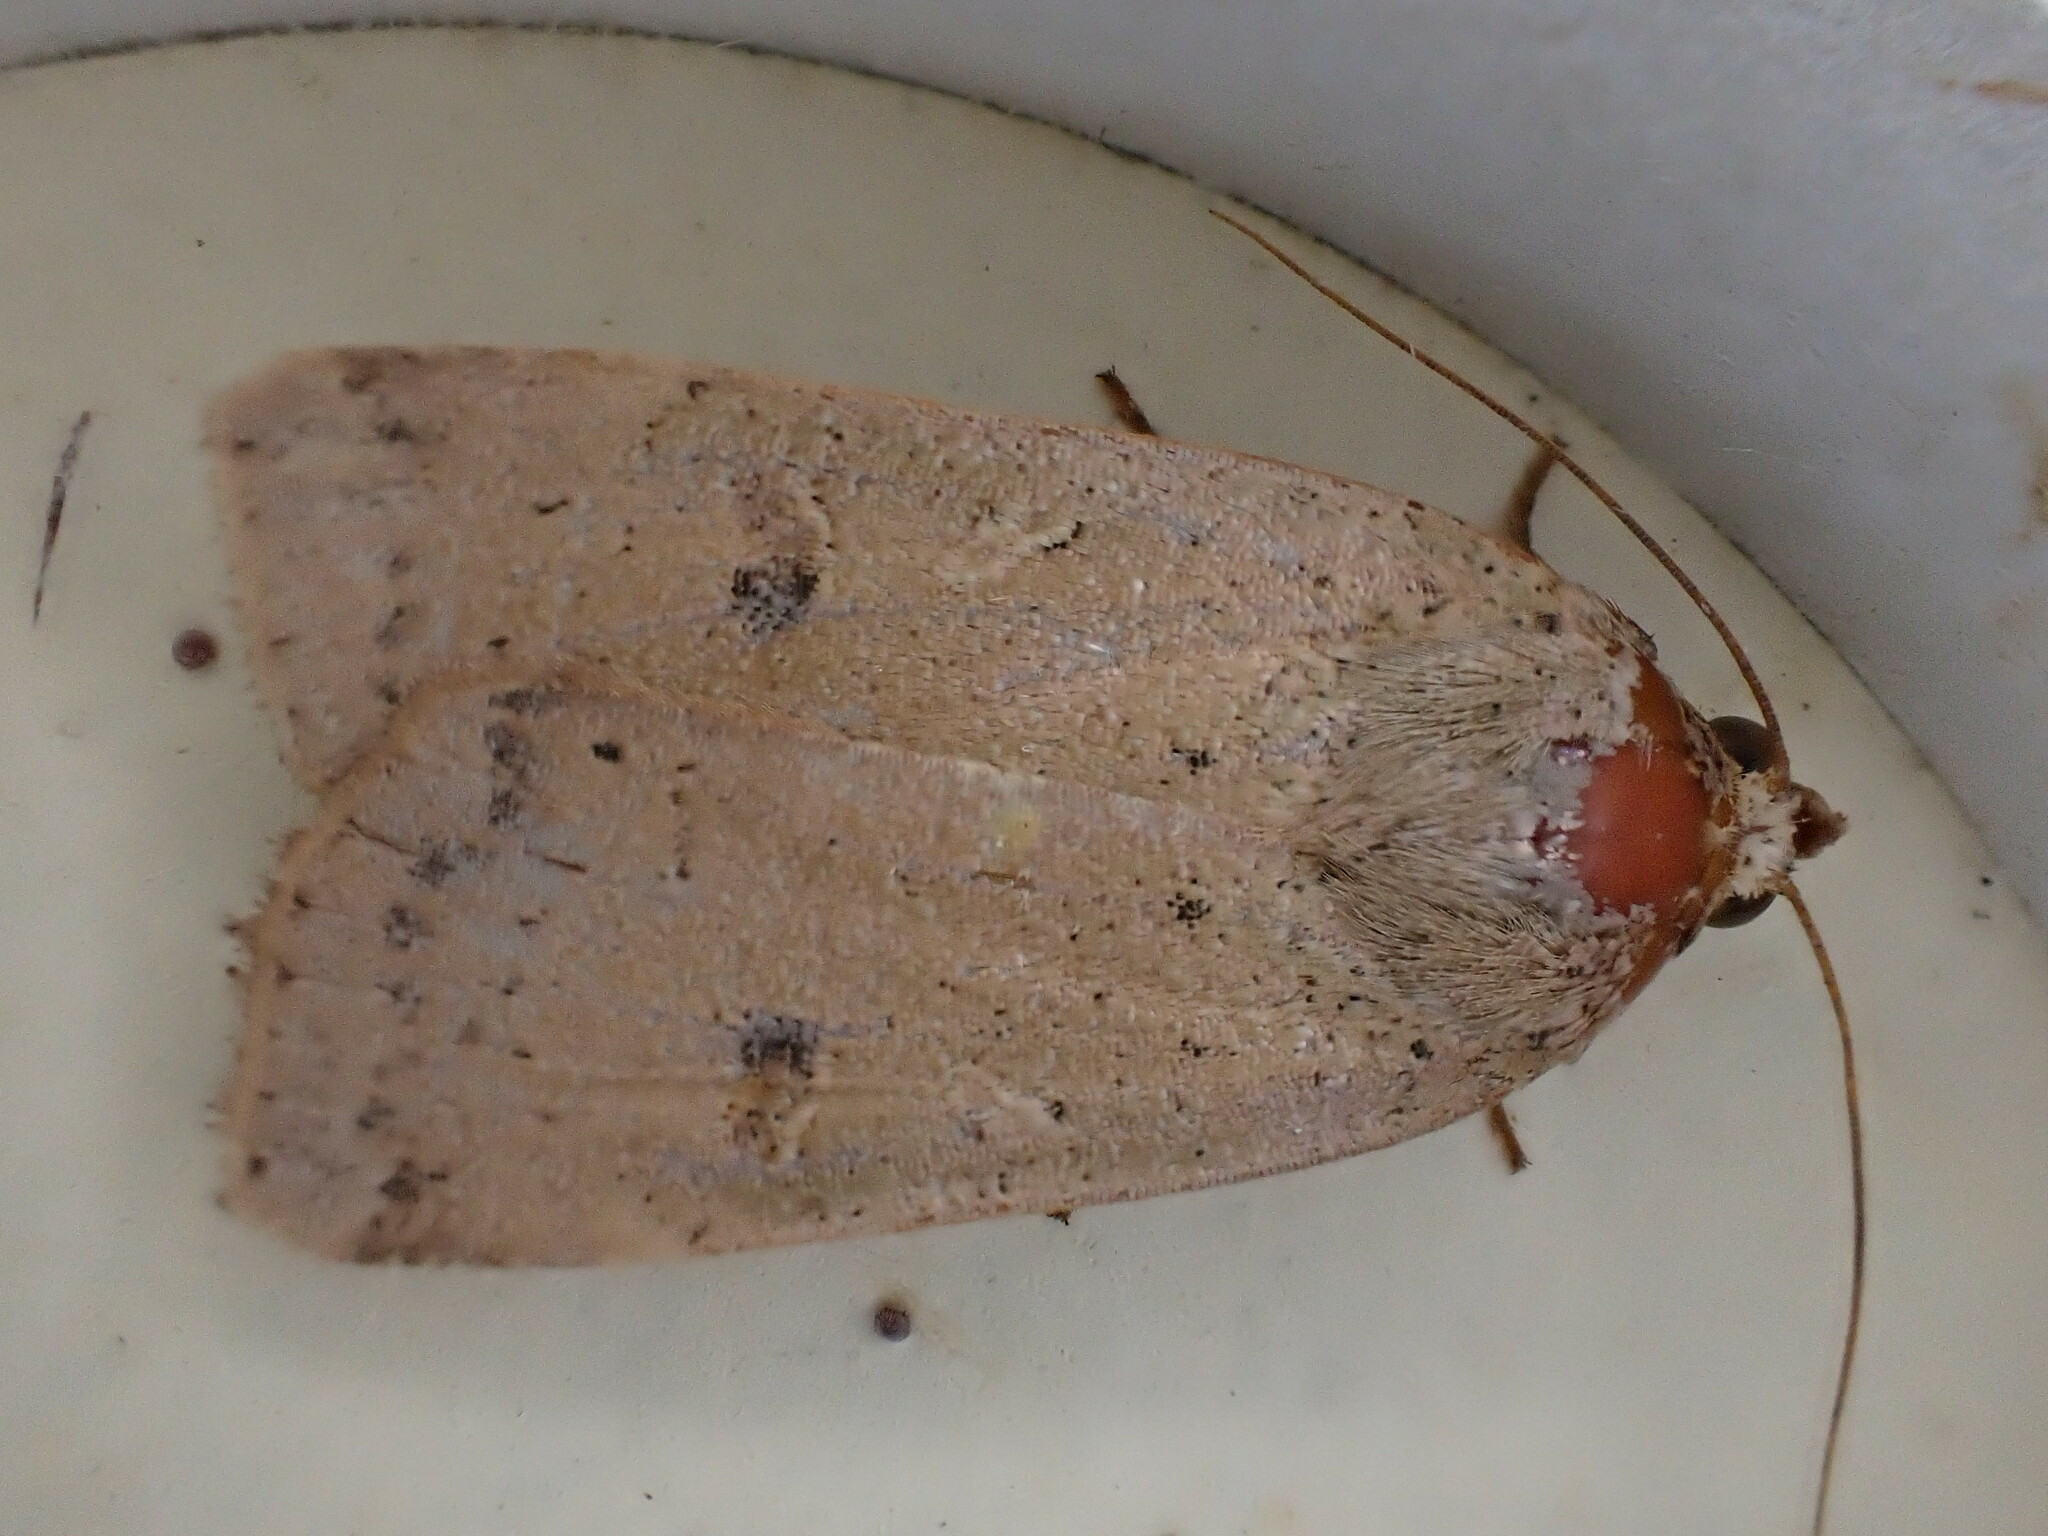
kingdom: Animalia
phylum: Arthropoda
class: Insecta
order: Lepidoptera
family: Noctuidae
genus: Noctua
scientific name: Noctua comes
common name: Lesser yellow underwing
